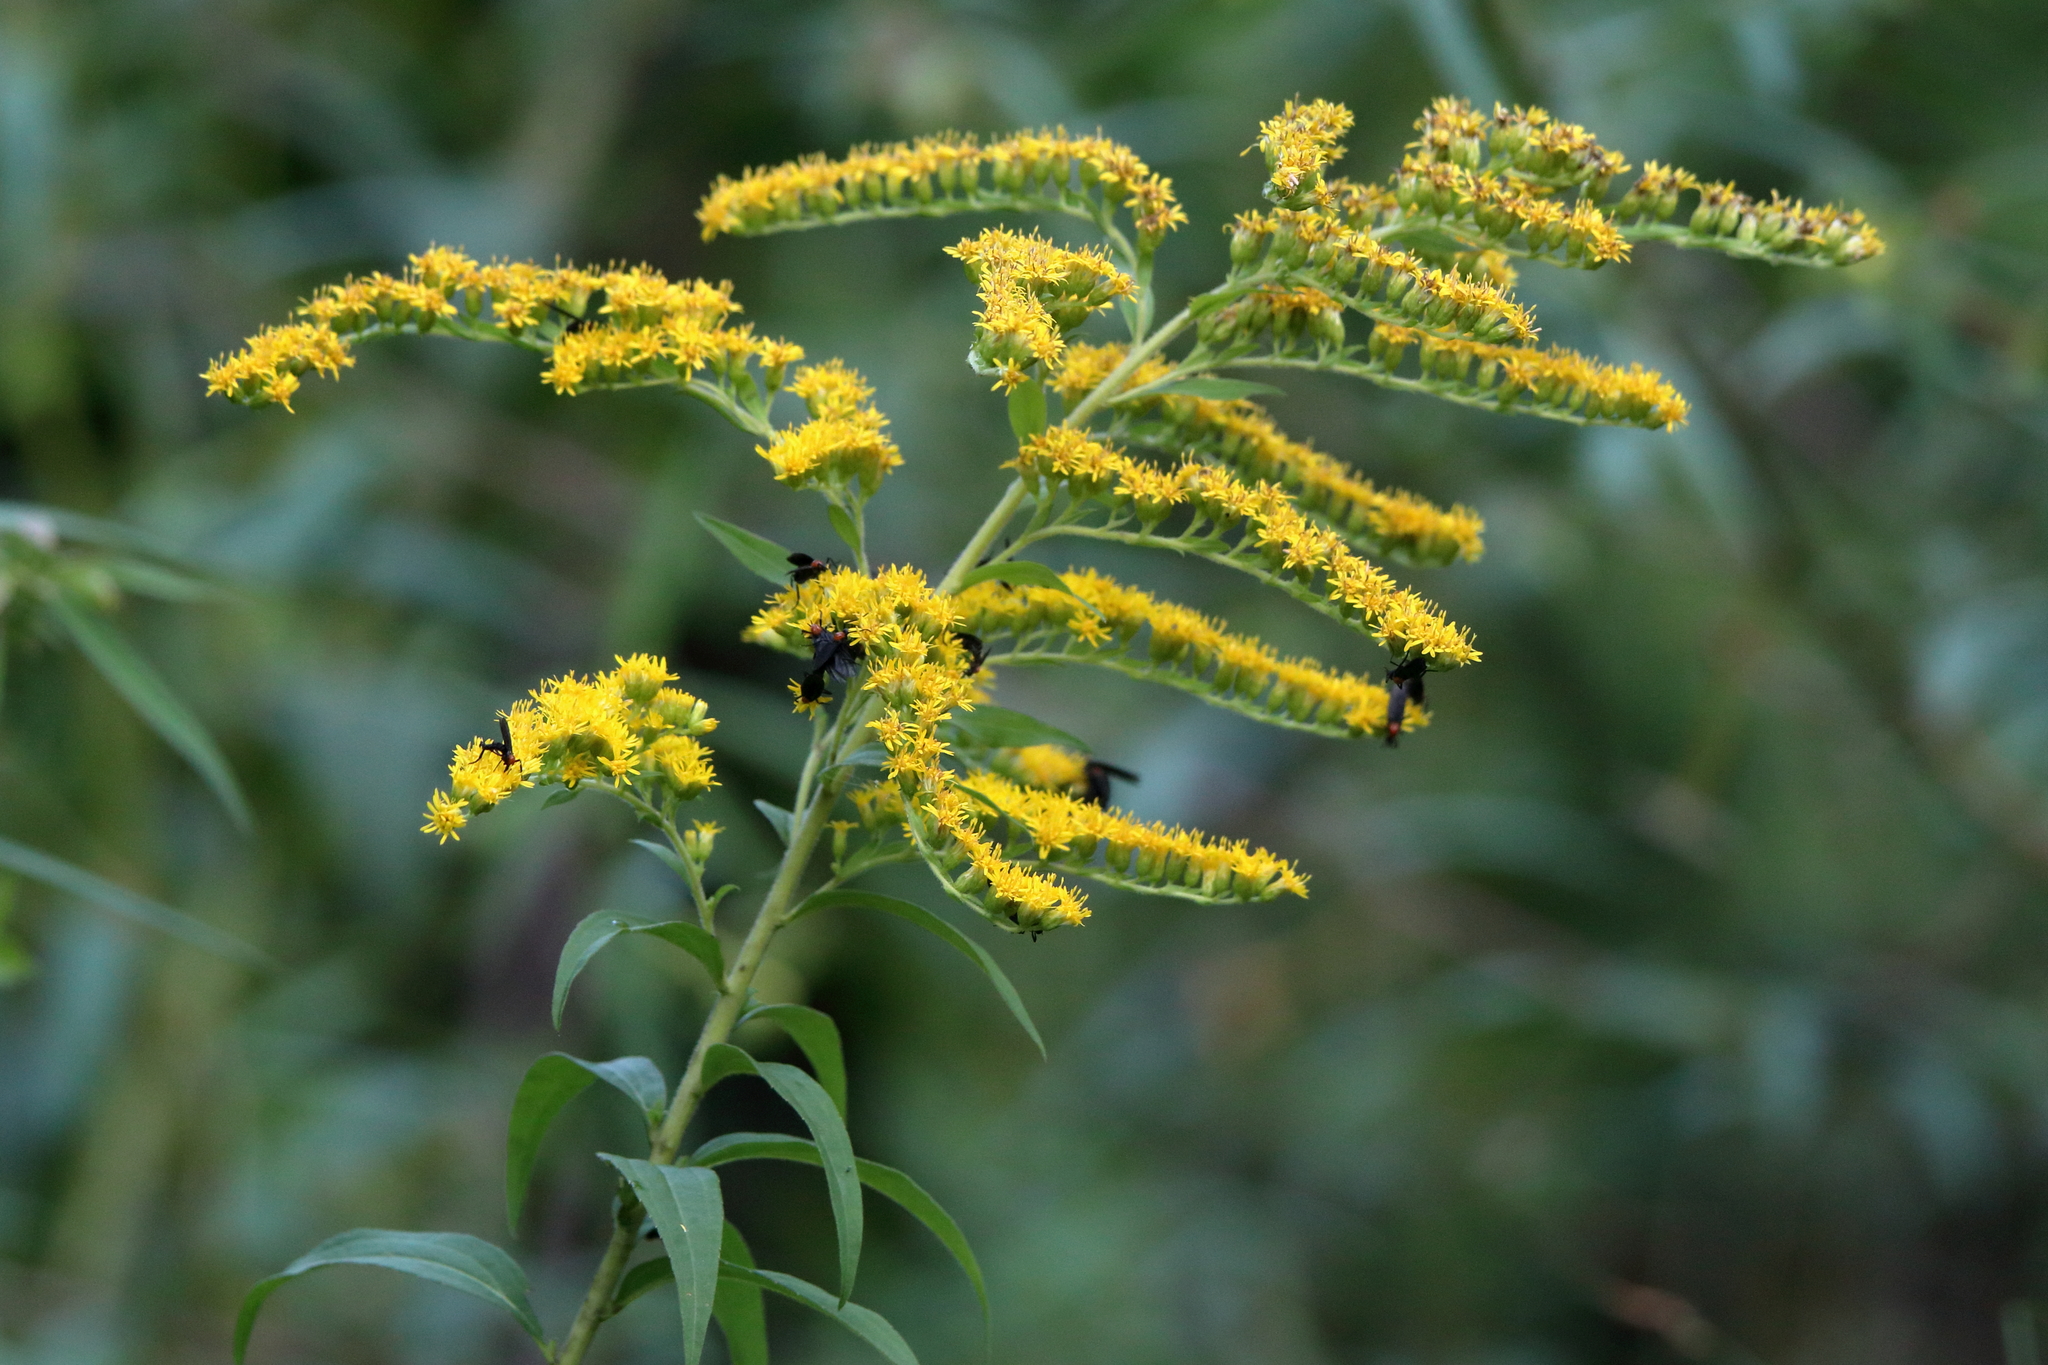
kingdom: Plantae
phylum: Tracheophyta
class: Magnoliopsida
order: Asterales
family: Asteraceae
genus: Solidago
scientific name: Solidago altissima
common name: Late goldenrod
